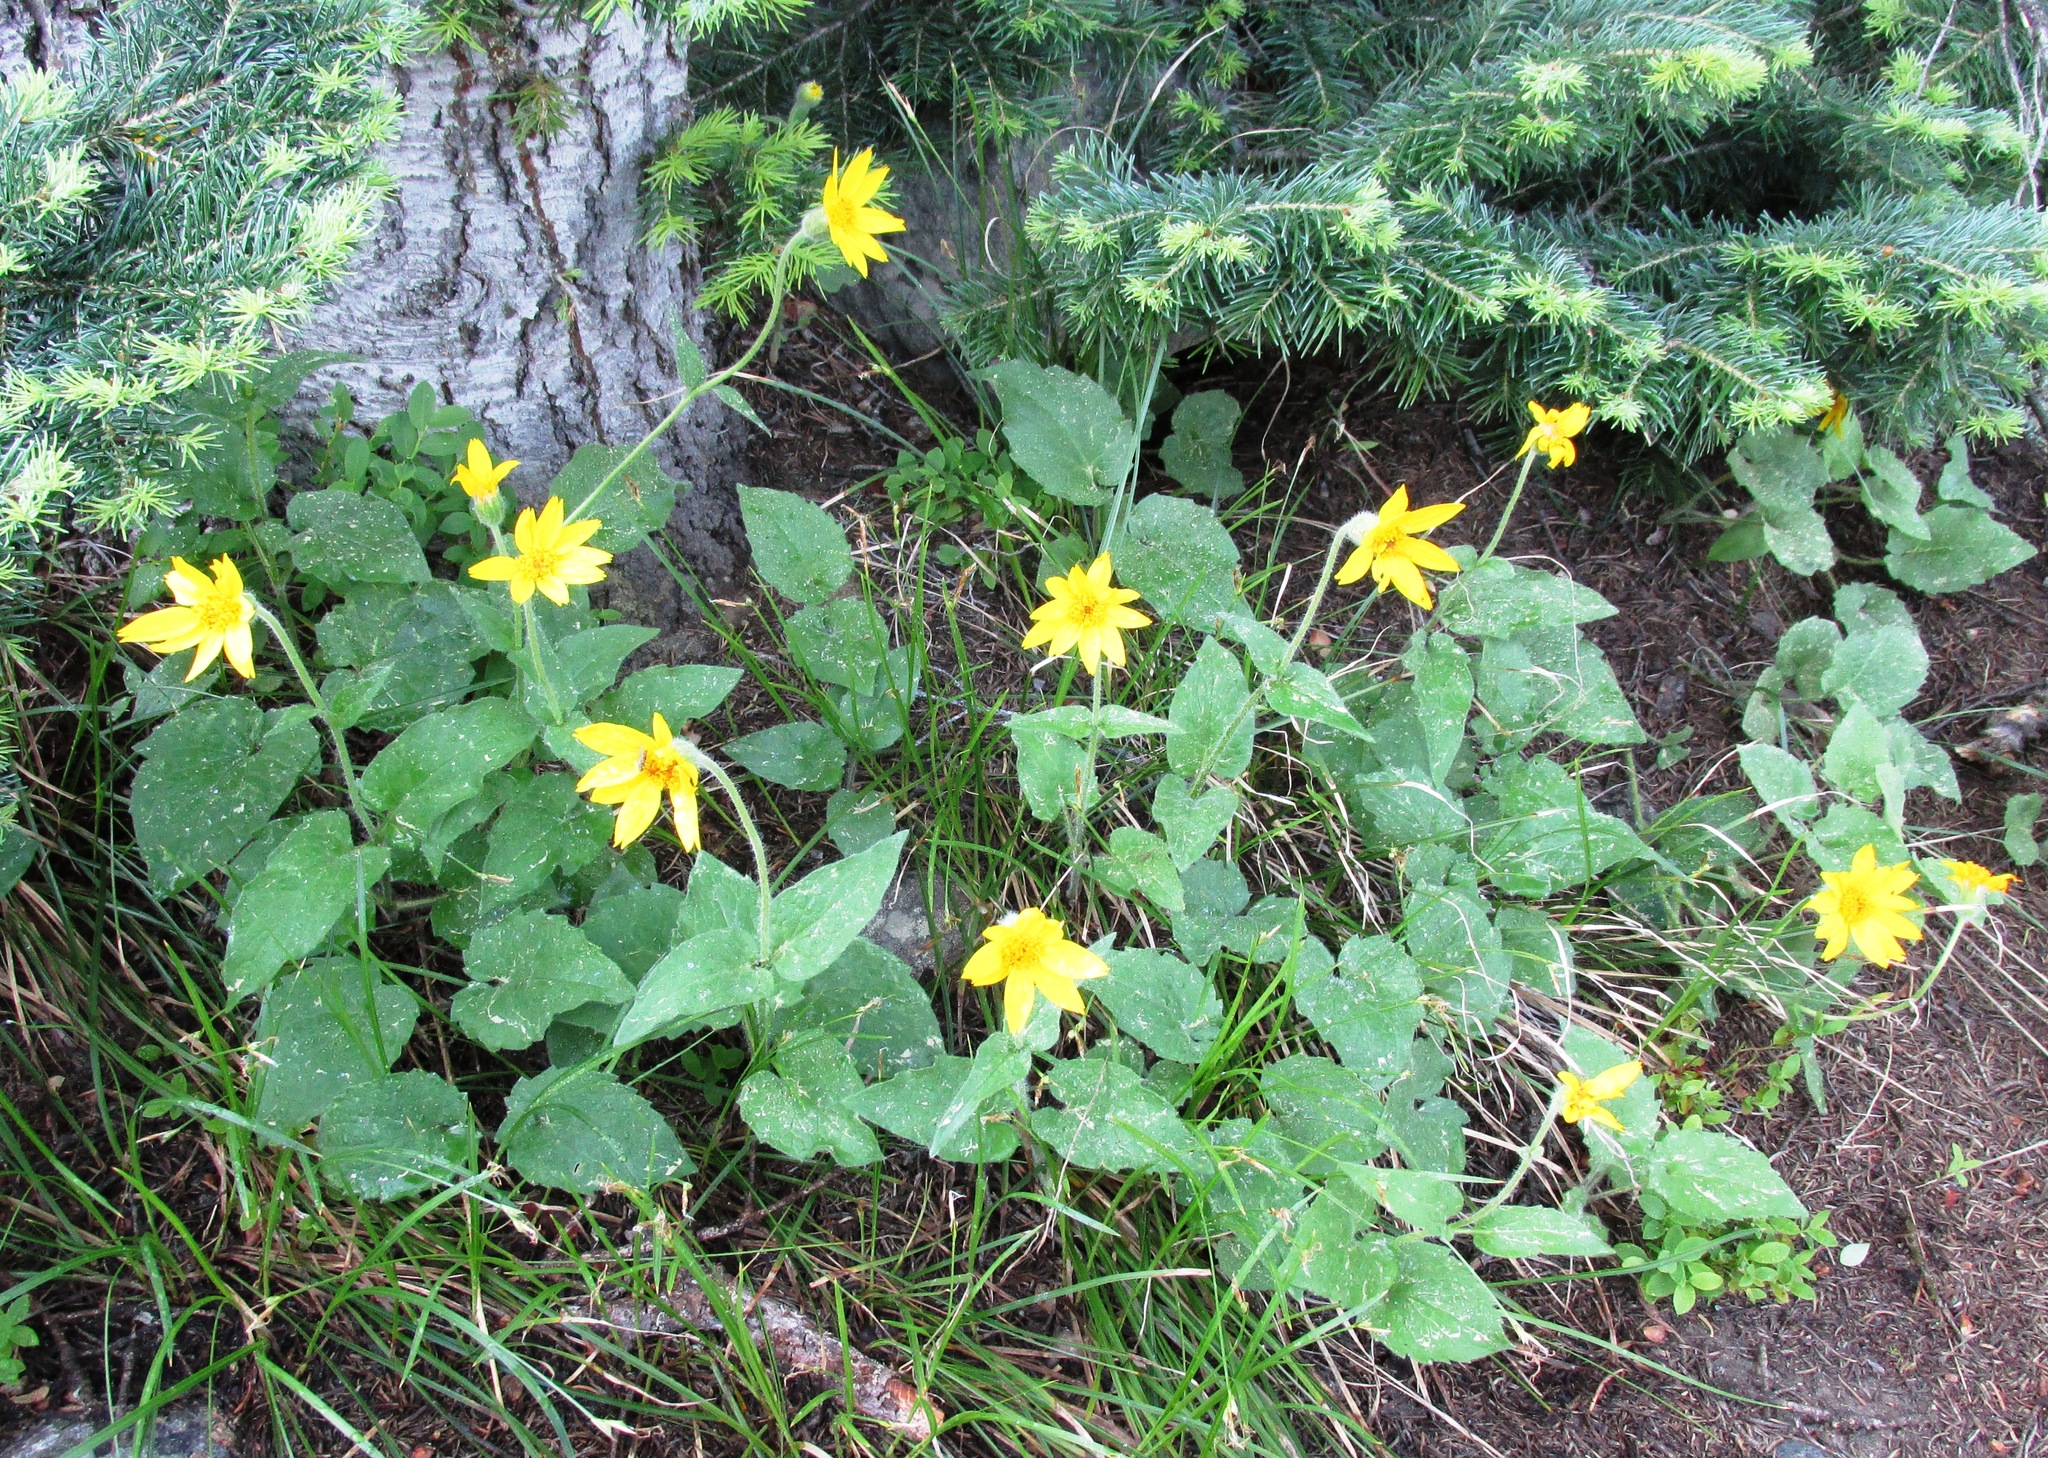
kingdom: Plantae
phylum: Tracheophyta
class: Magnoliopsida
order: Asterales
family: Asteraceae
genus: Arnica
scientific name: Arnica cordifolia
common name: Heart-leaf arnica
